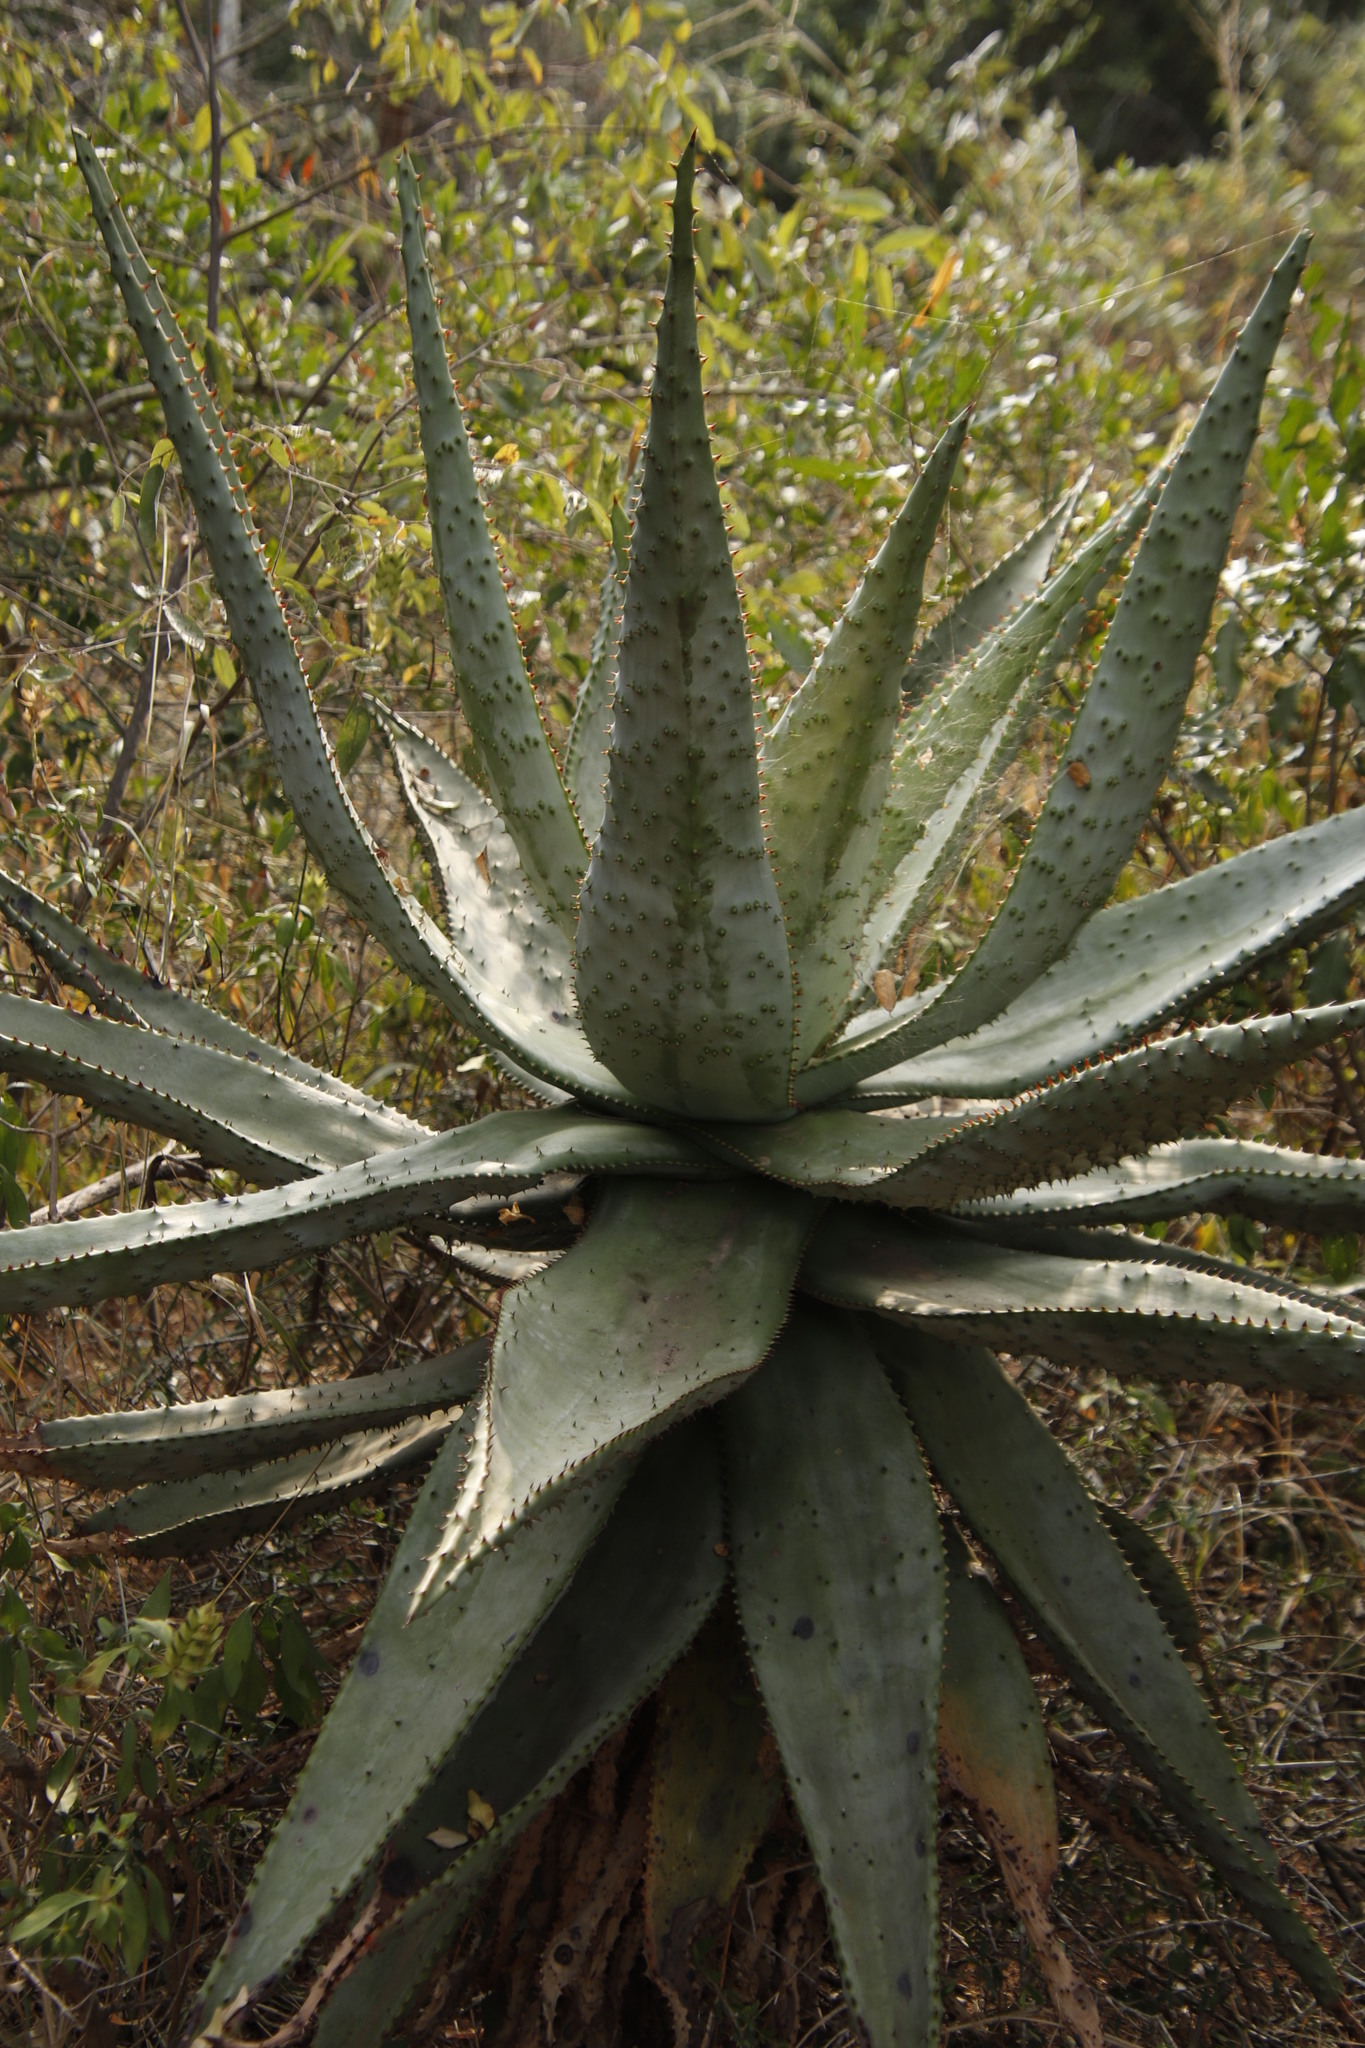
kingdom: Plantae
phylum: Tracheophyta
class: Liliopsida
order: Asparagales
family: Asphodelaceae
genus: Aloe
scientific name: Aloe marlothii
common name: Flat-flowered aloe
